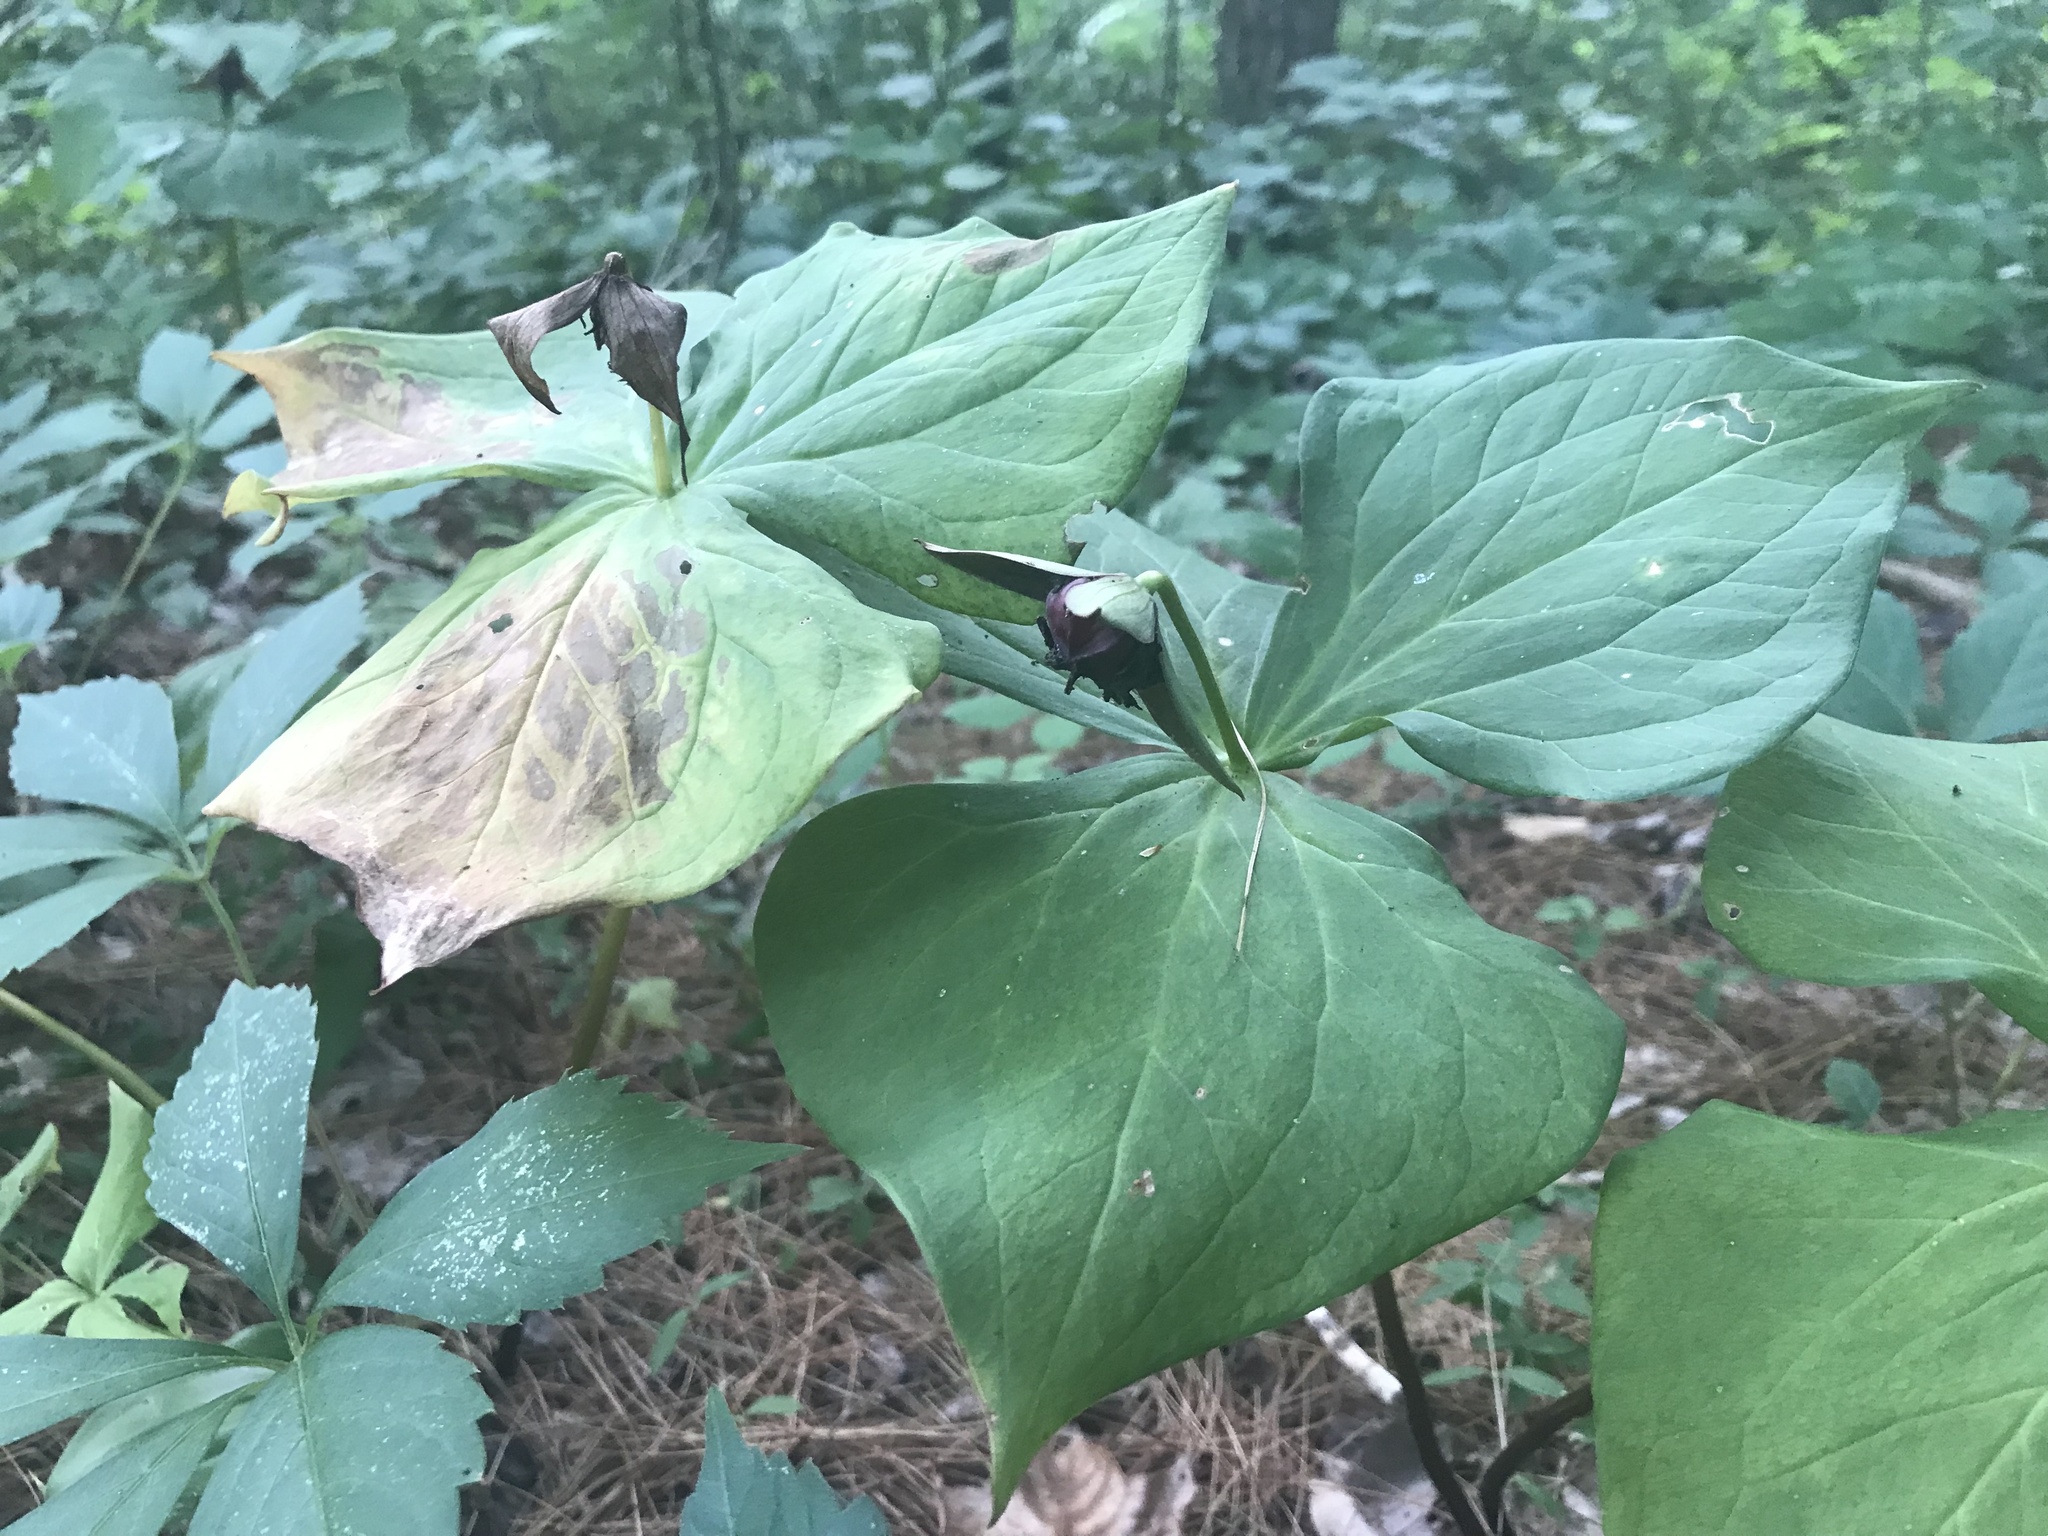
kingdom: Plantae
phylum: Tracheophyta
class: Liliopsida
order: Liliales
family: Melanthiaceae
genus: Trillium
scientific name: Trillium erectum
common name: Purple trillium
